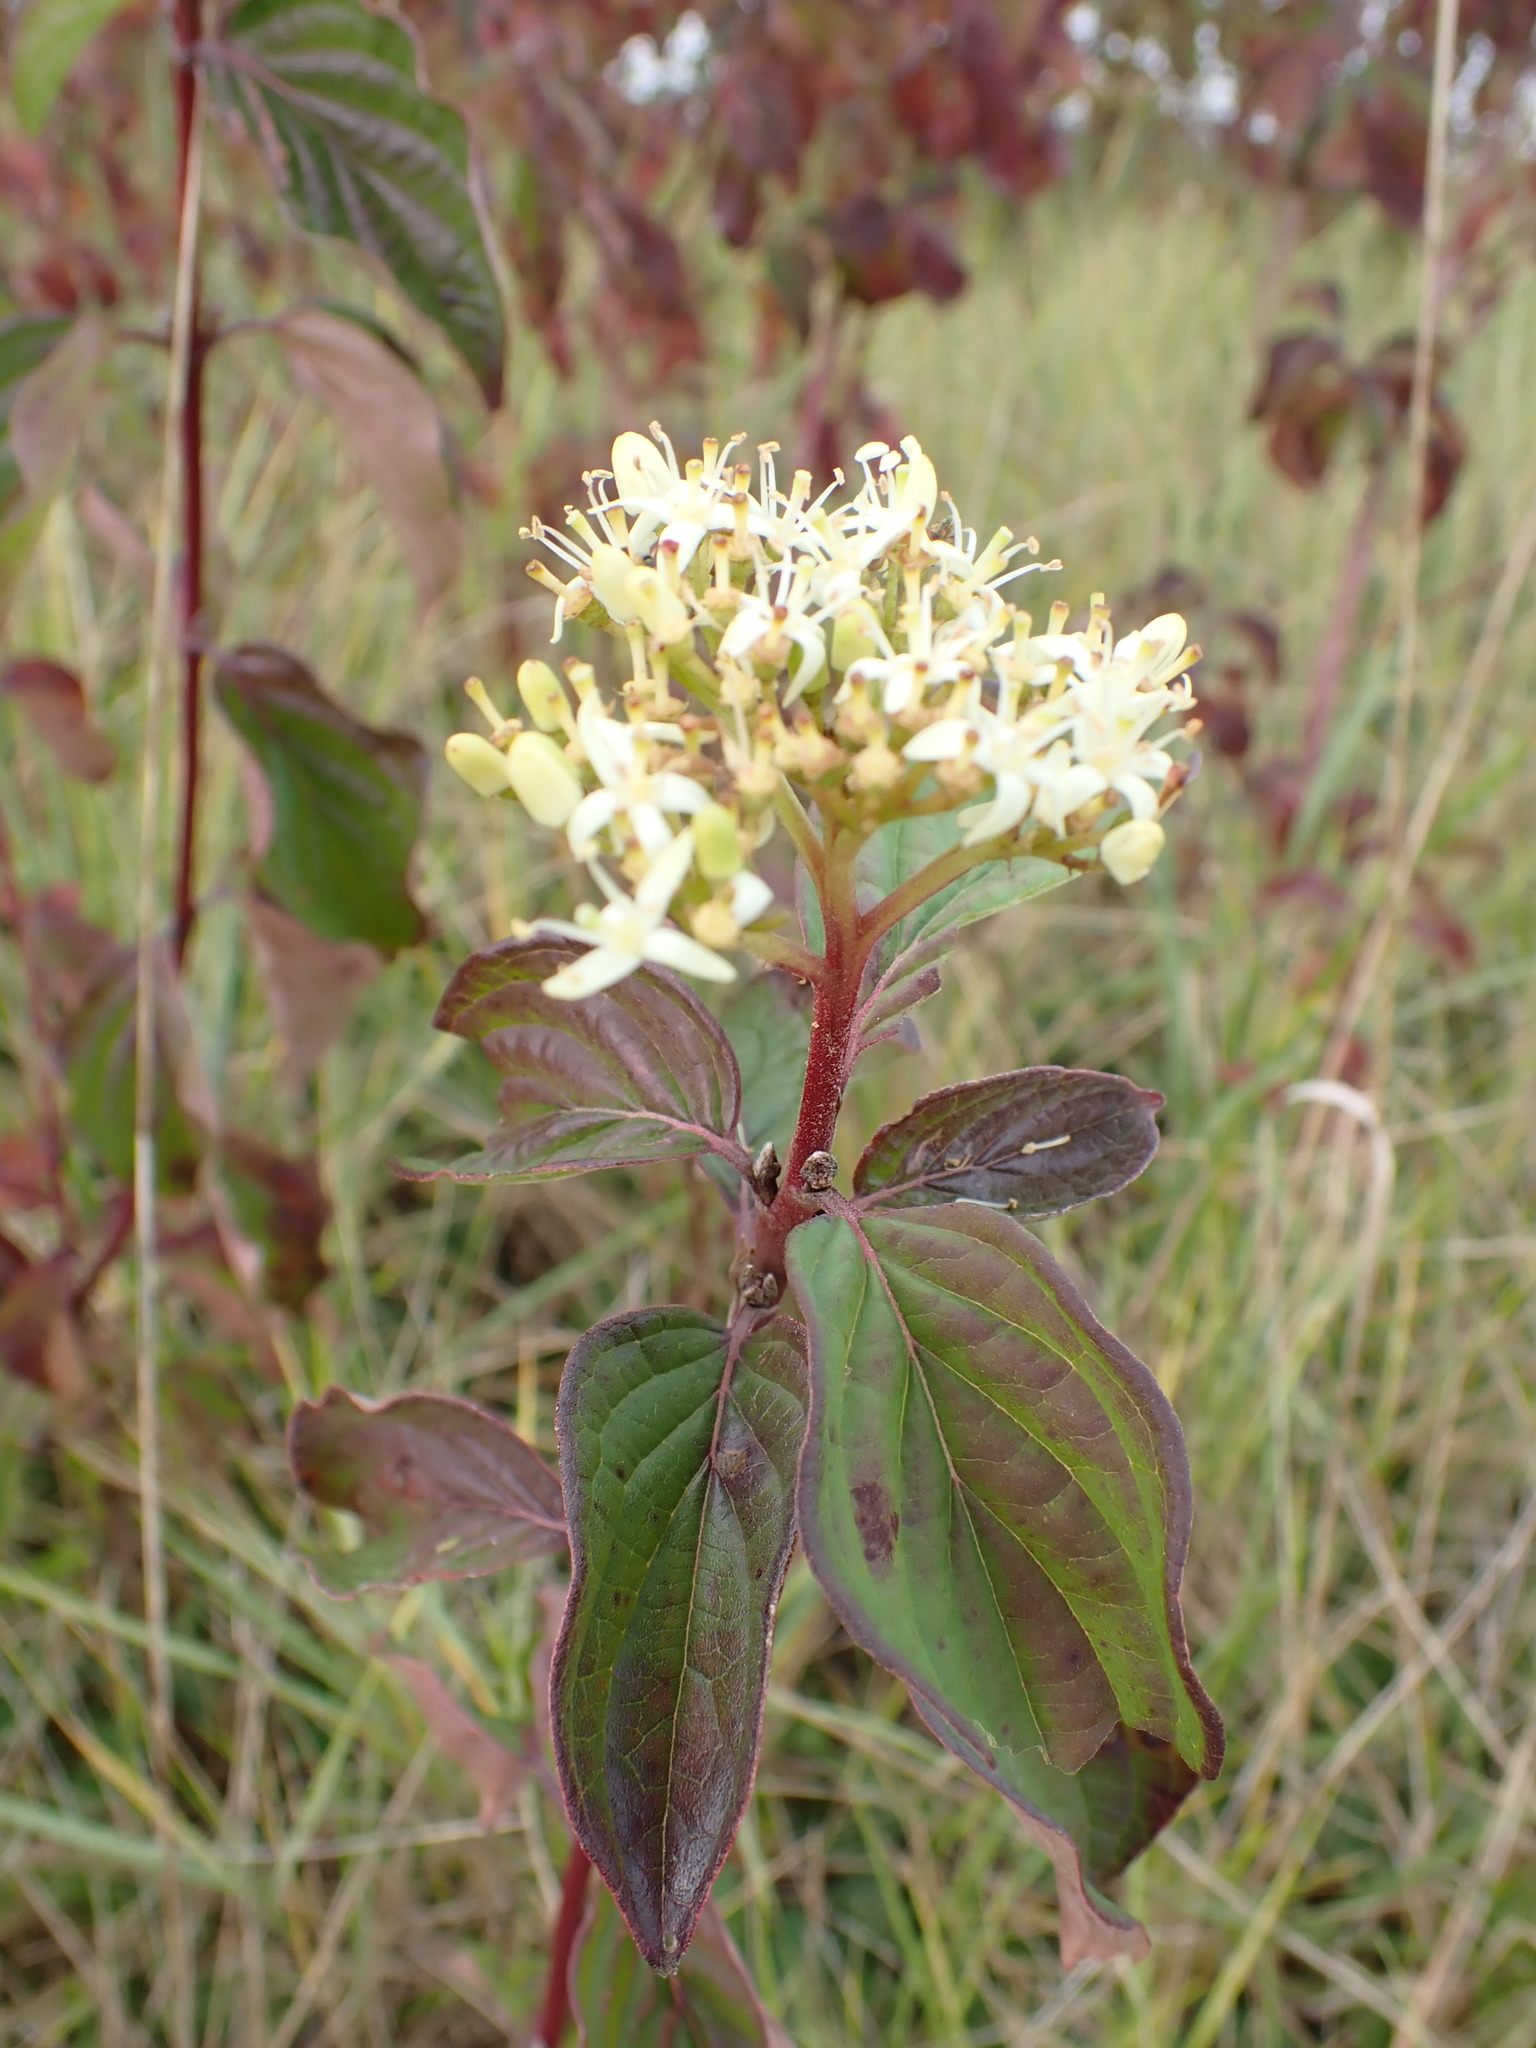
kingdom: Plantae
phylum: Tracheophyta
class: Magnoliopsida
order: Cornales
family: Cornaceae
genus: Cornus
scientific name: Cornus sanguinea
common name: Dogwood
